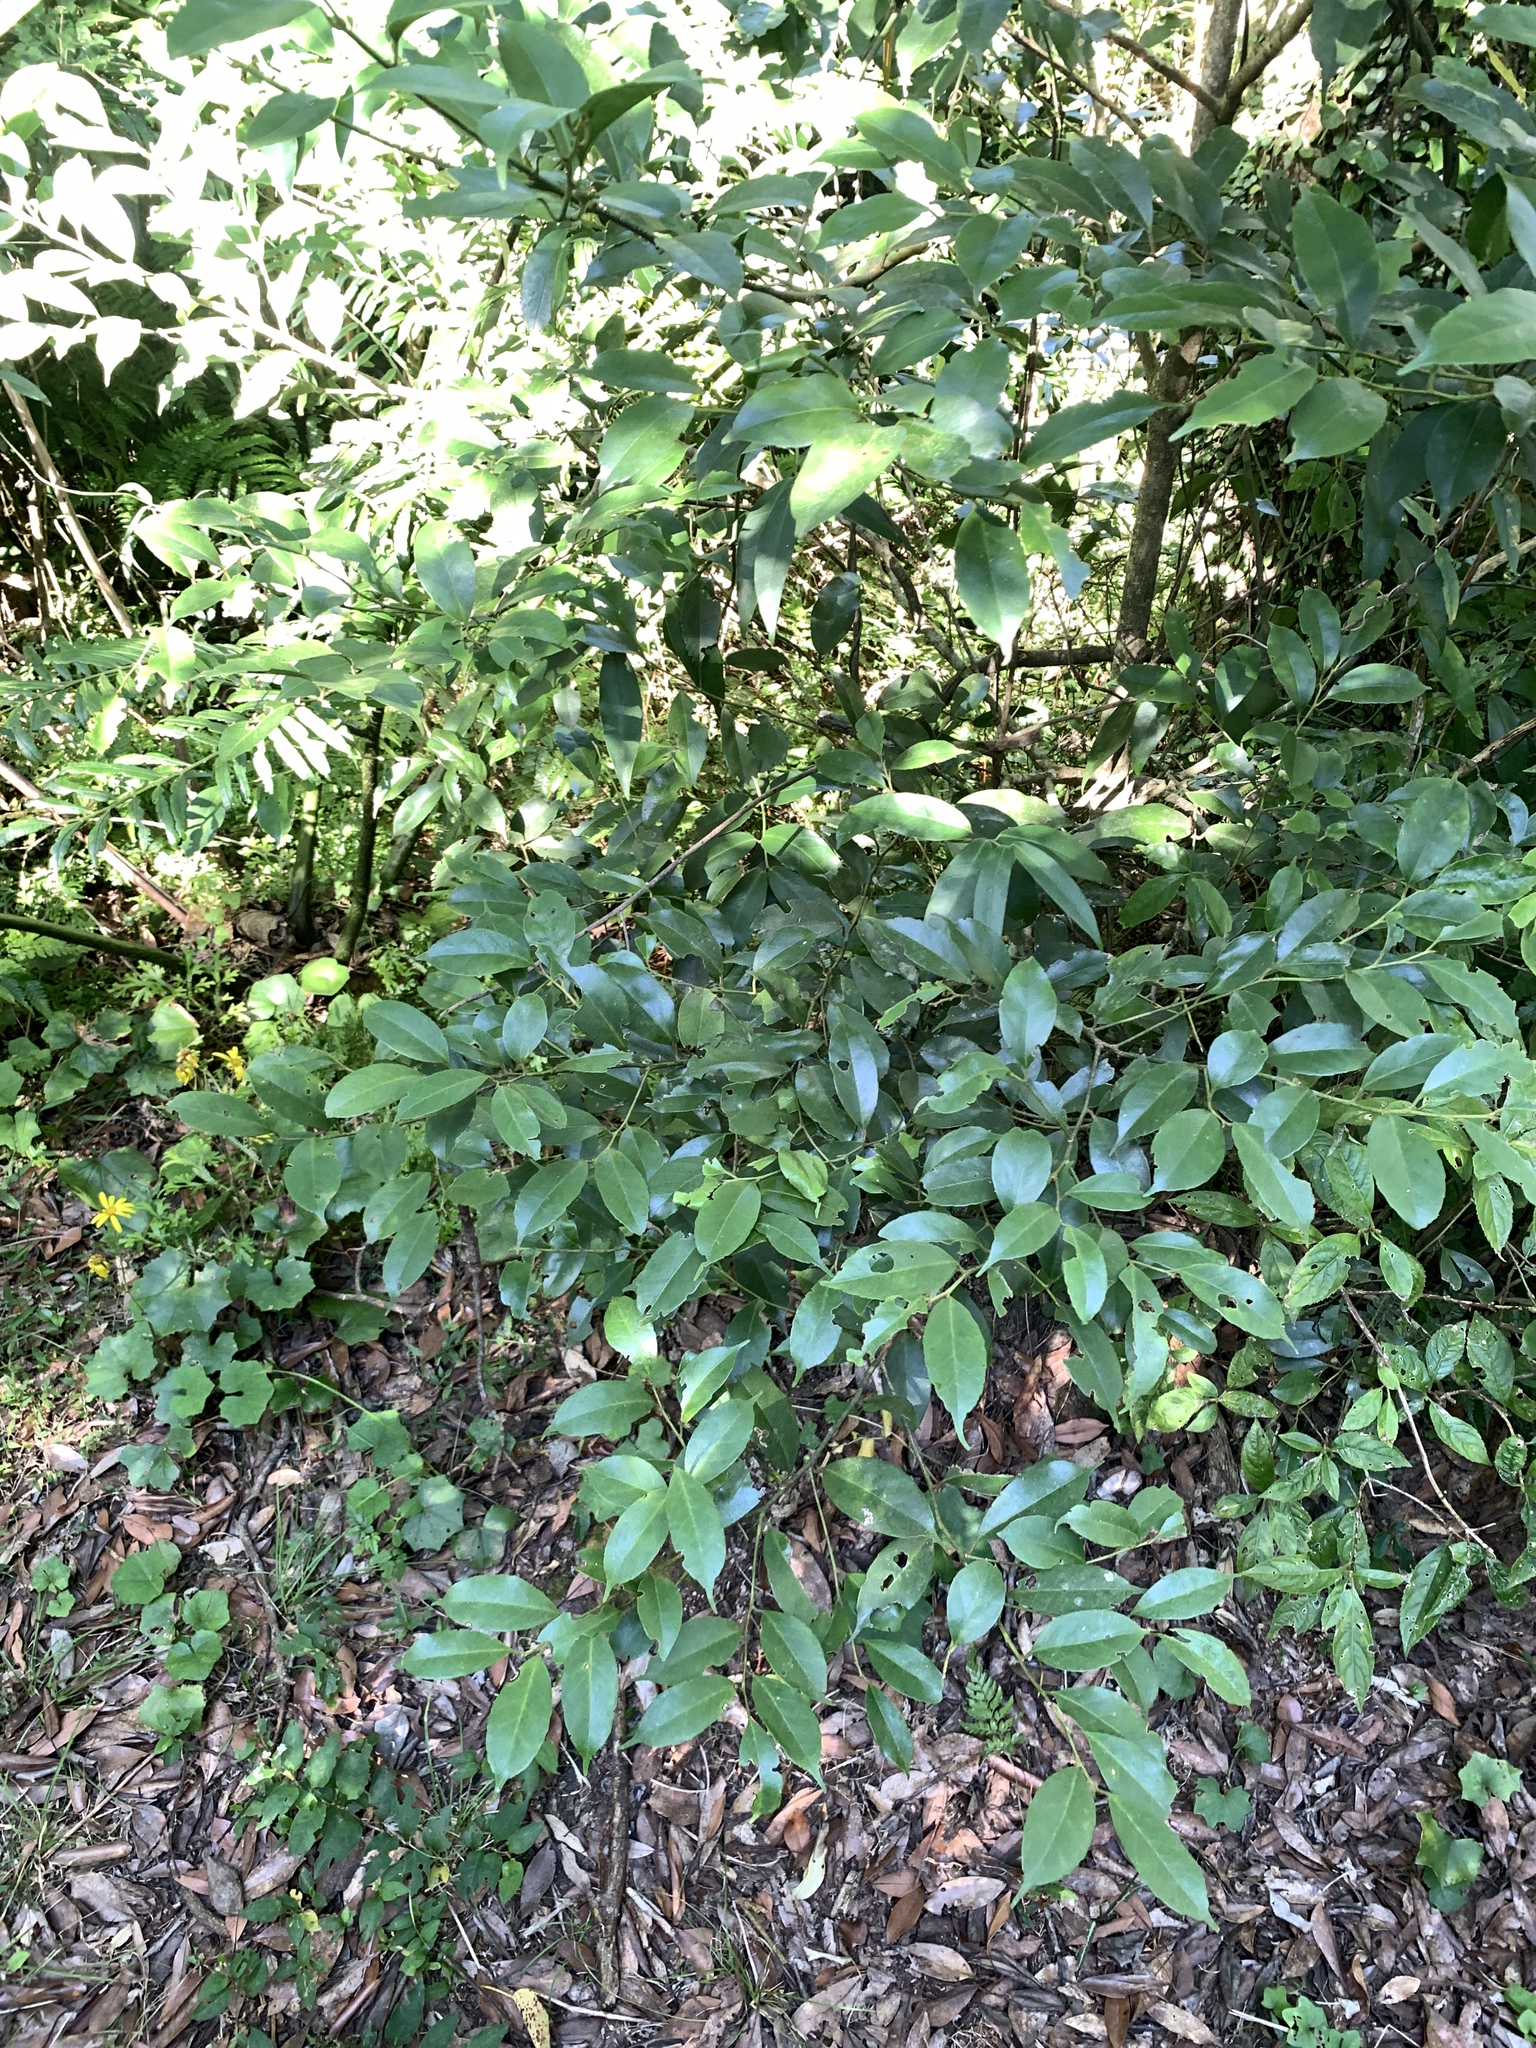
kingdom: Plantae
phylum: Tracheophyta
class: Magnoliopsida
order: Aquifoliales
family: Aquifoliaceae
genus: Ilex
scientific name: Ilex ficoidea
